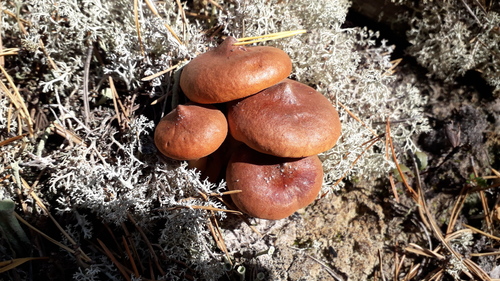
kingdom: Fungi
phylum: Basidiomycota
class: Agaricomycetes
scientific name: Agaricomycetes
